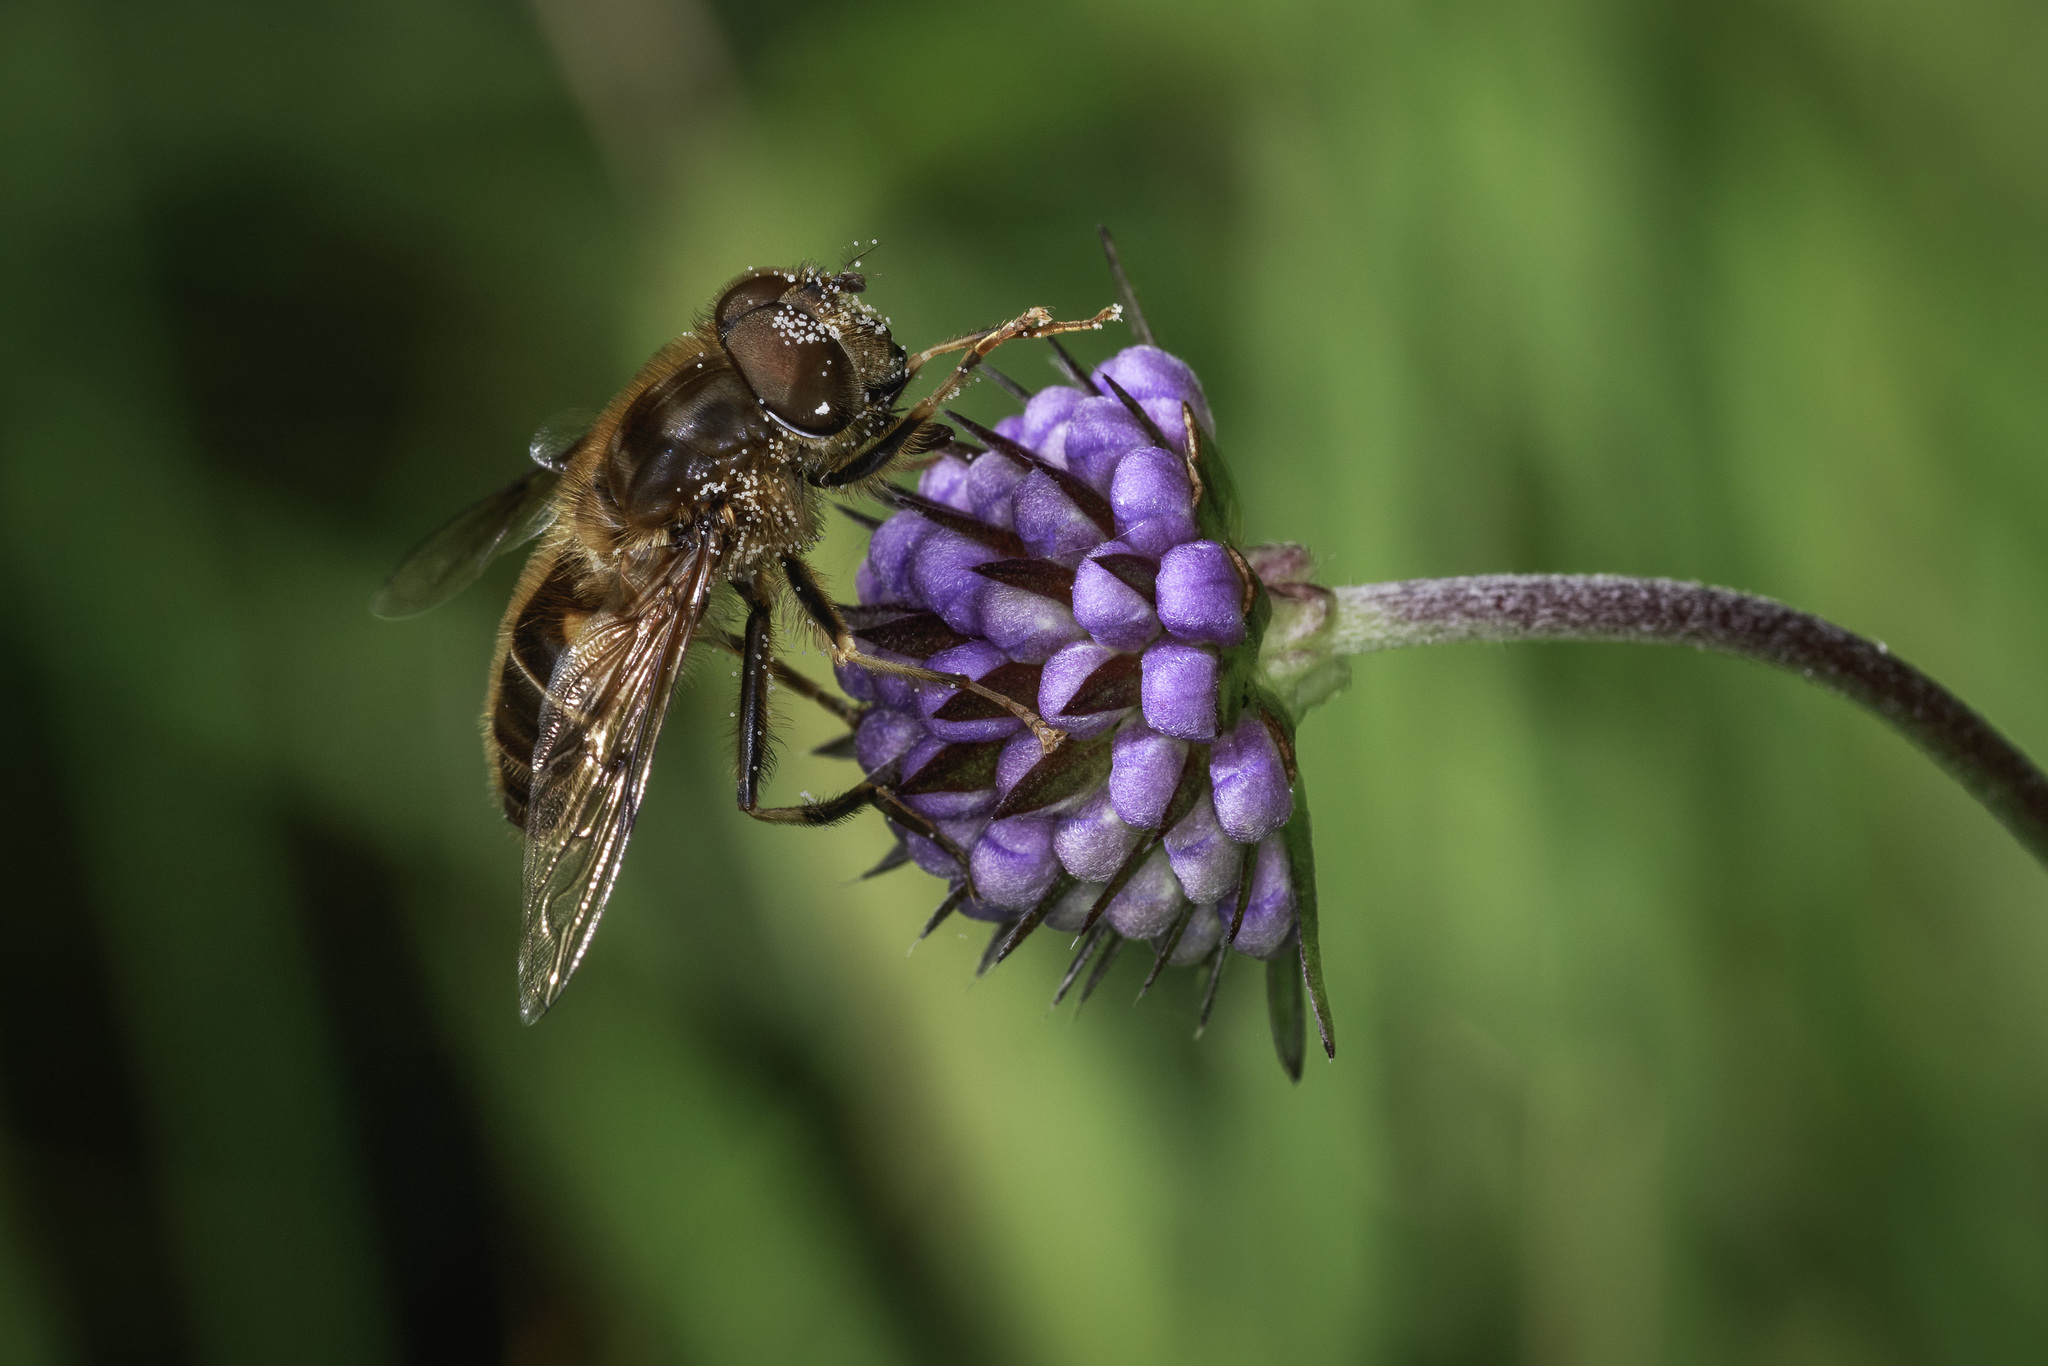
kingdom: Animalia
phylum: Arthropoda
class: Insecta
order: Diptera
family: Syrphidae
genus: Eristalis
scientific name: Eristalis pertinax
